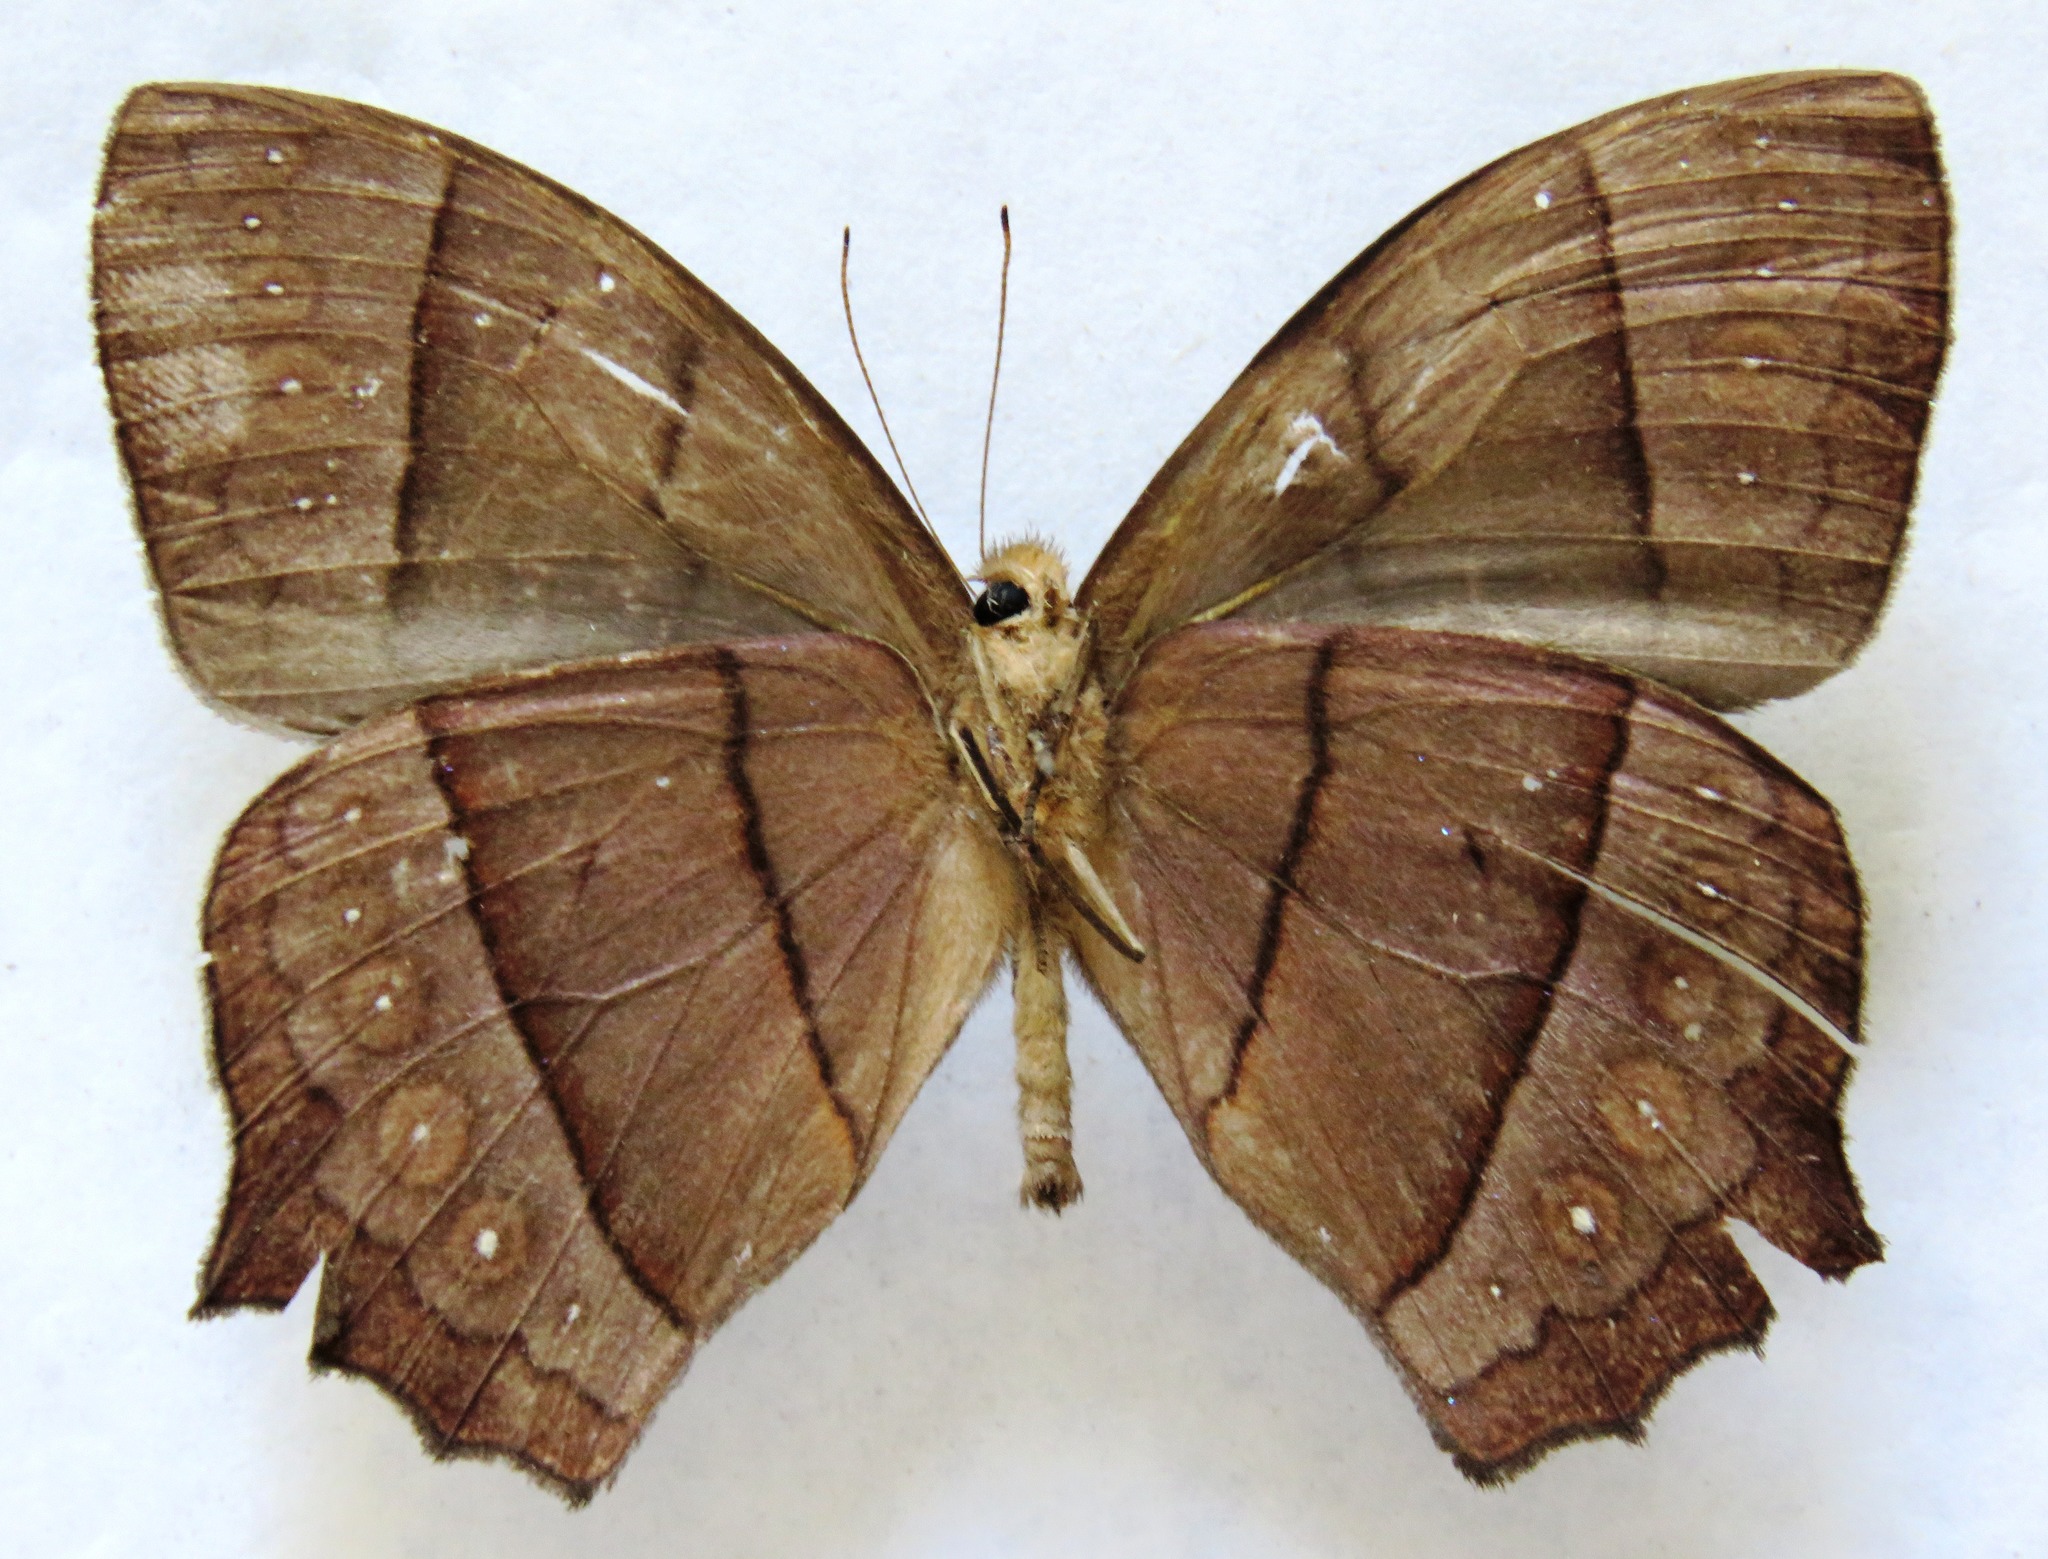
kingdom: Animalia
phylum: Arthropoda
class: Insecta
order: Lepidoptera
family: Nymphalidae
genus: Taygetis
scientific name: Taygetis virgilia
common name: Stub-tailed satyr
